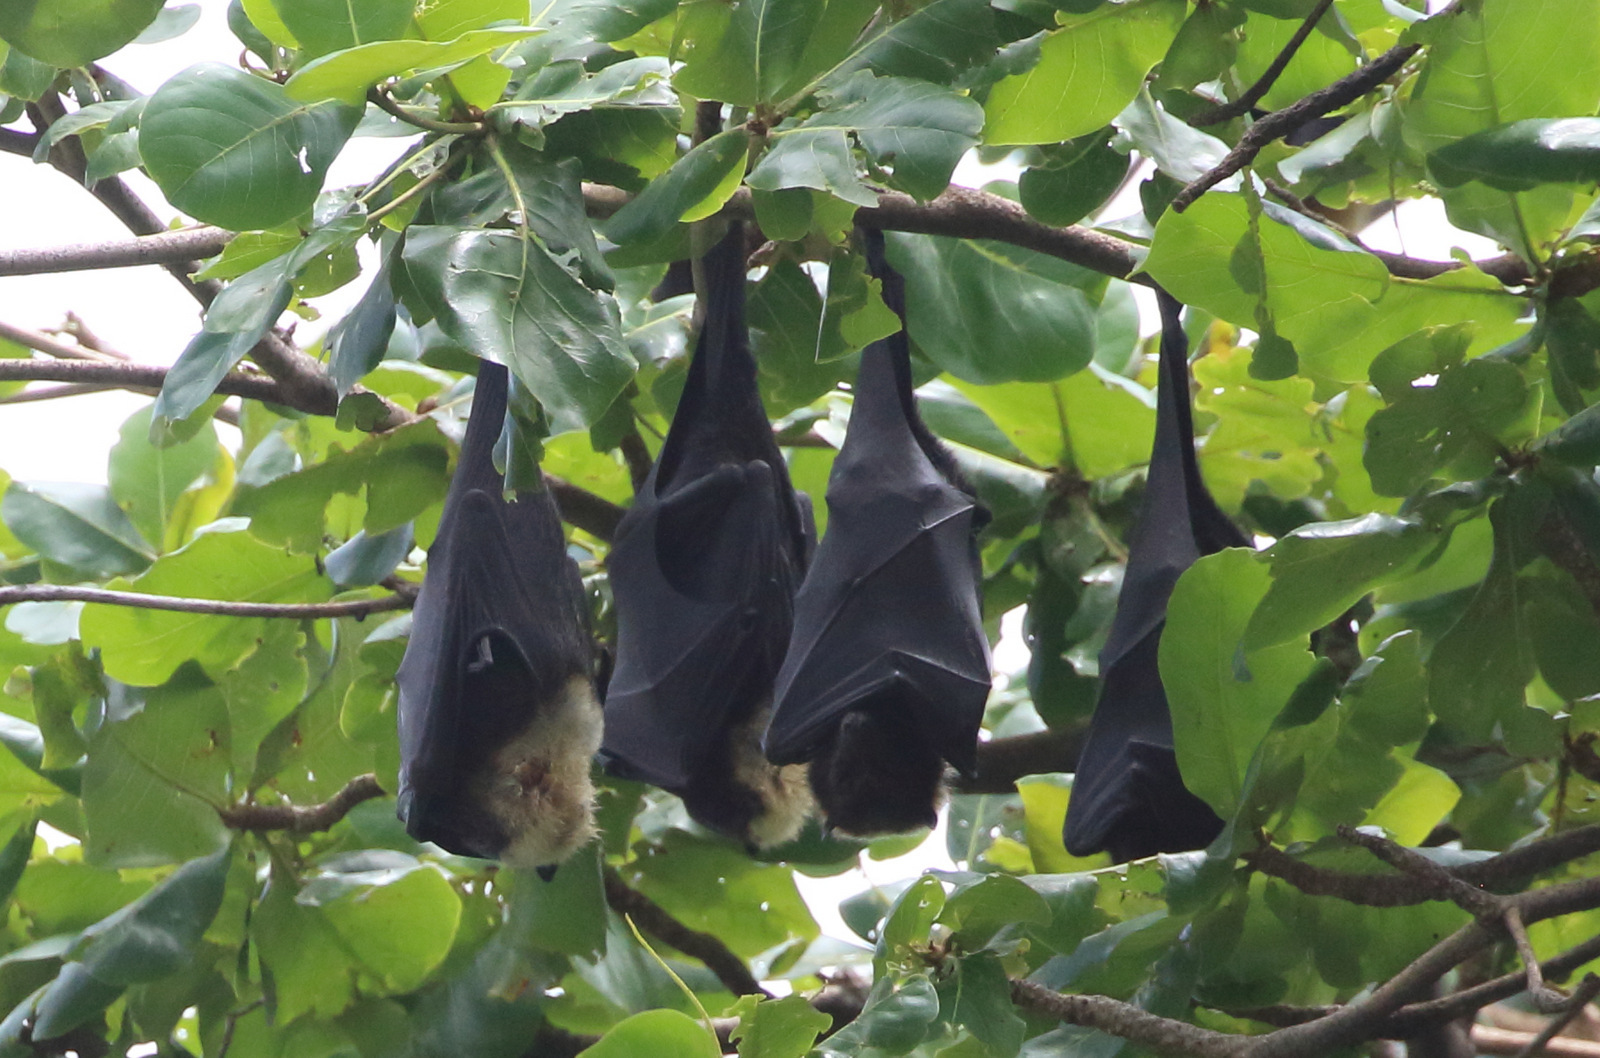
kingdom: Animalia
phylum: Chordata
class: Mammalia
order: Chiroptera
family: Pteropodidae
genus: Pteropus
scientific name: Pteropus tonganus
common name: Pacific flying fox
